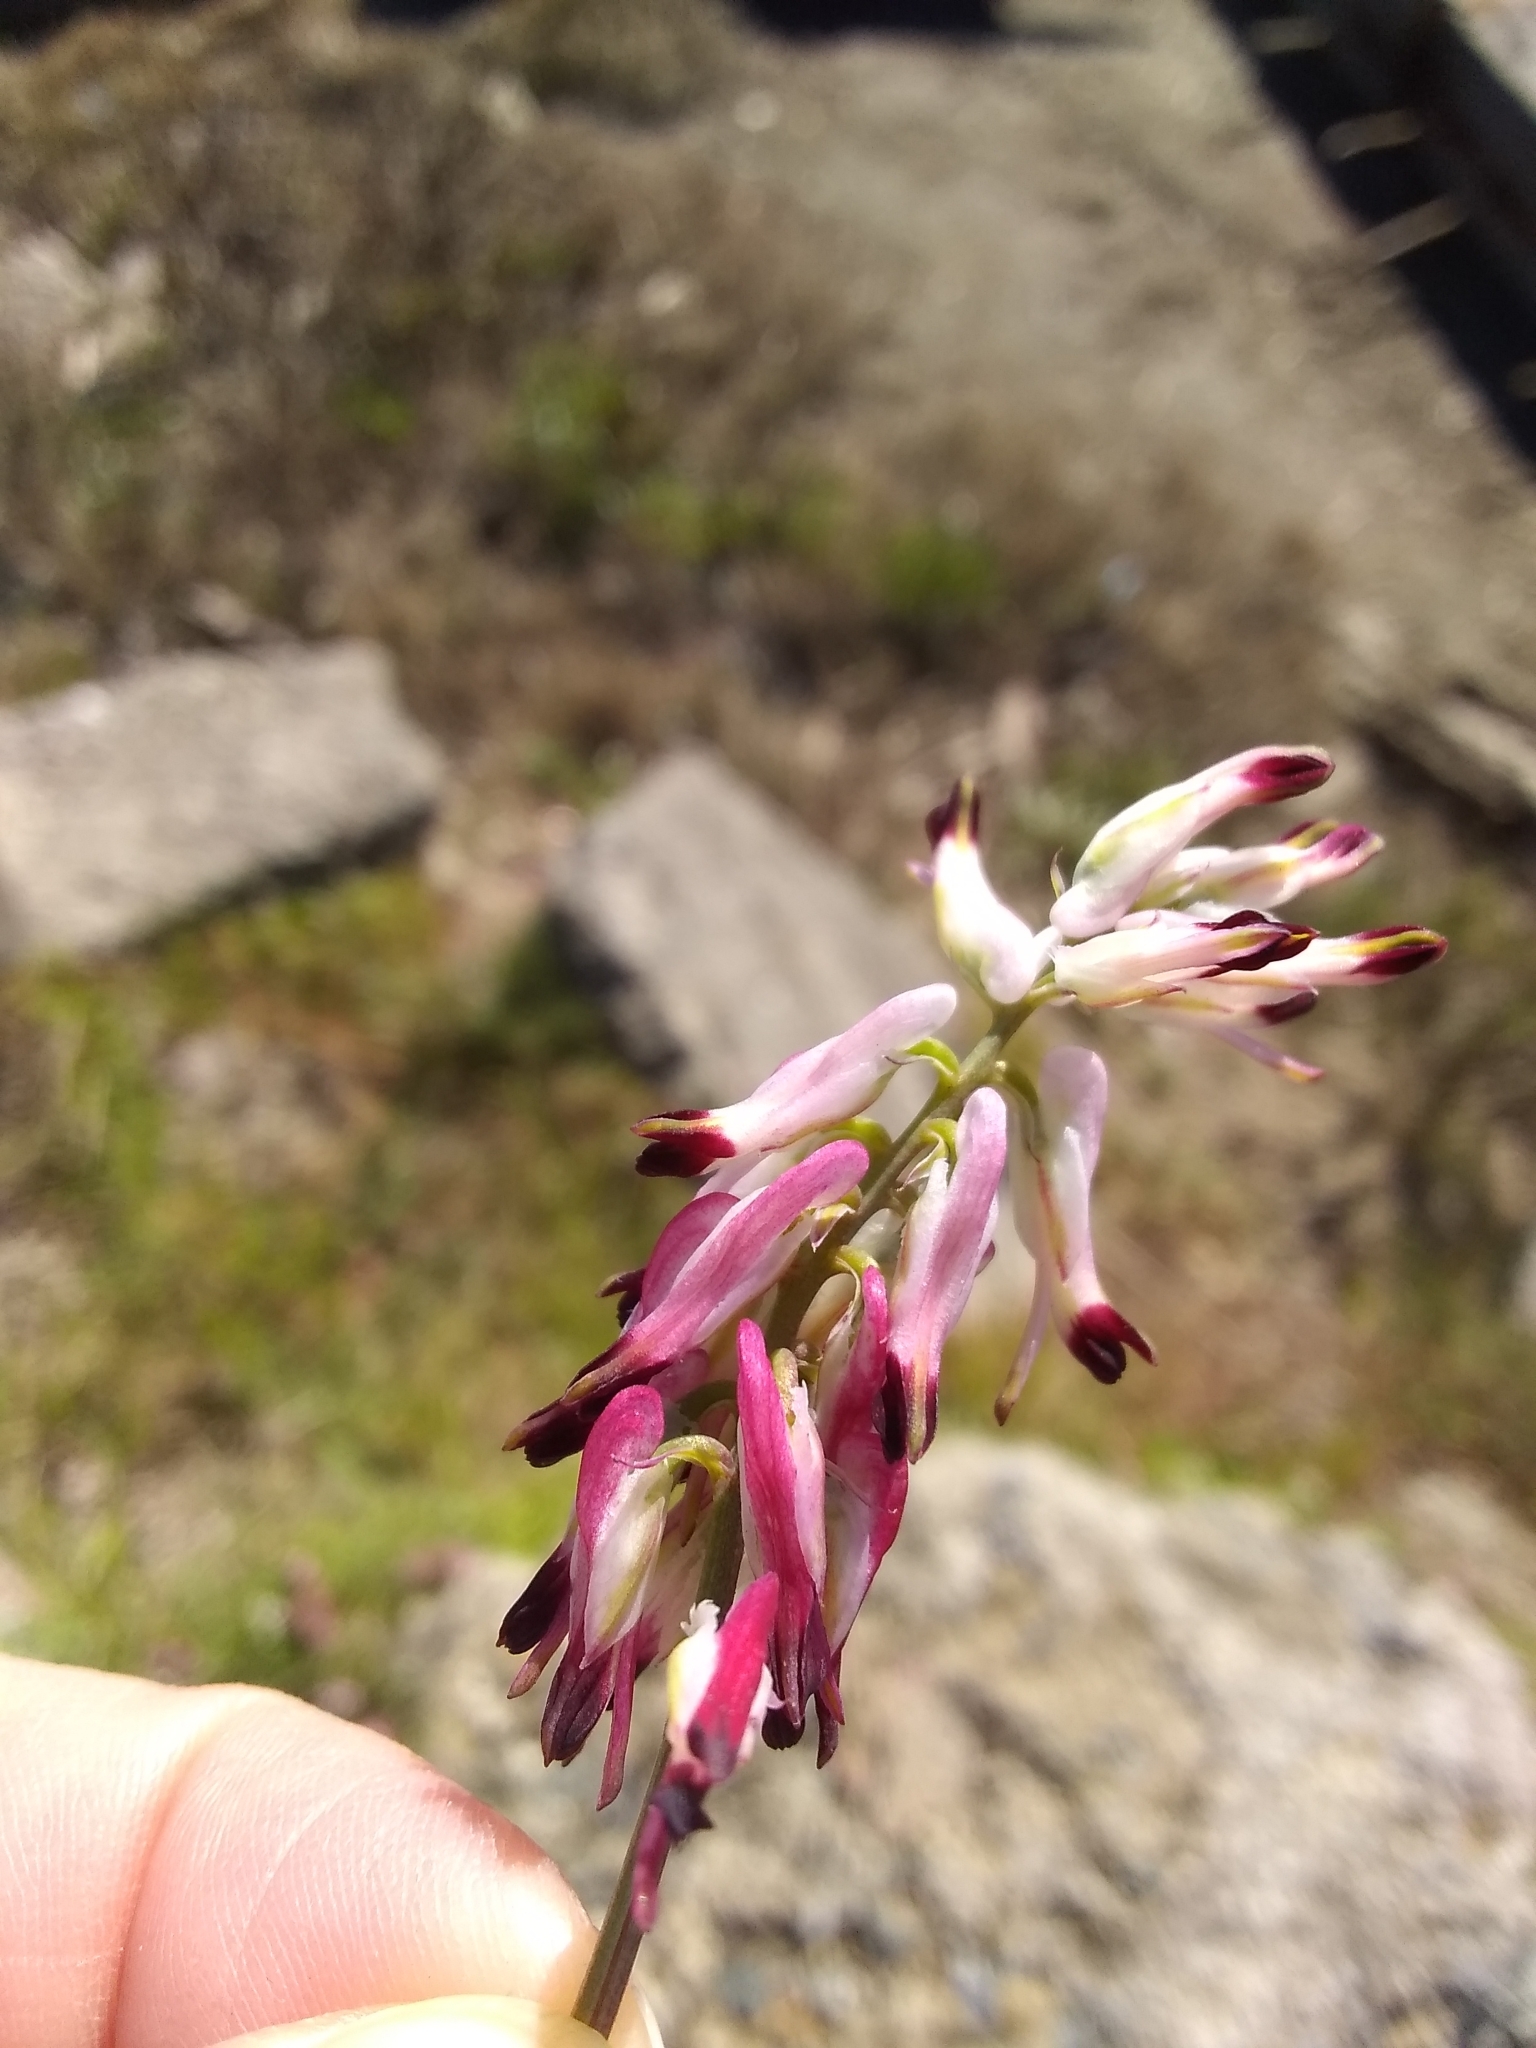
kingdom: Plantae
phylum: Tracheophyta
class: Magnoliopsida
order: Ranunculales
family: Papaveraceae
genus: Fumaria
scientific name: Fumaria capreolata
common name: White ramping-fumitory
